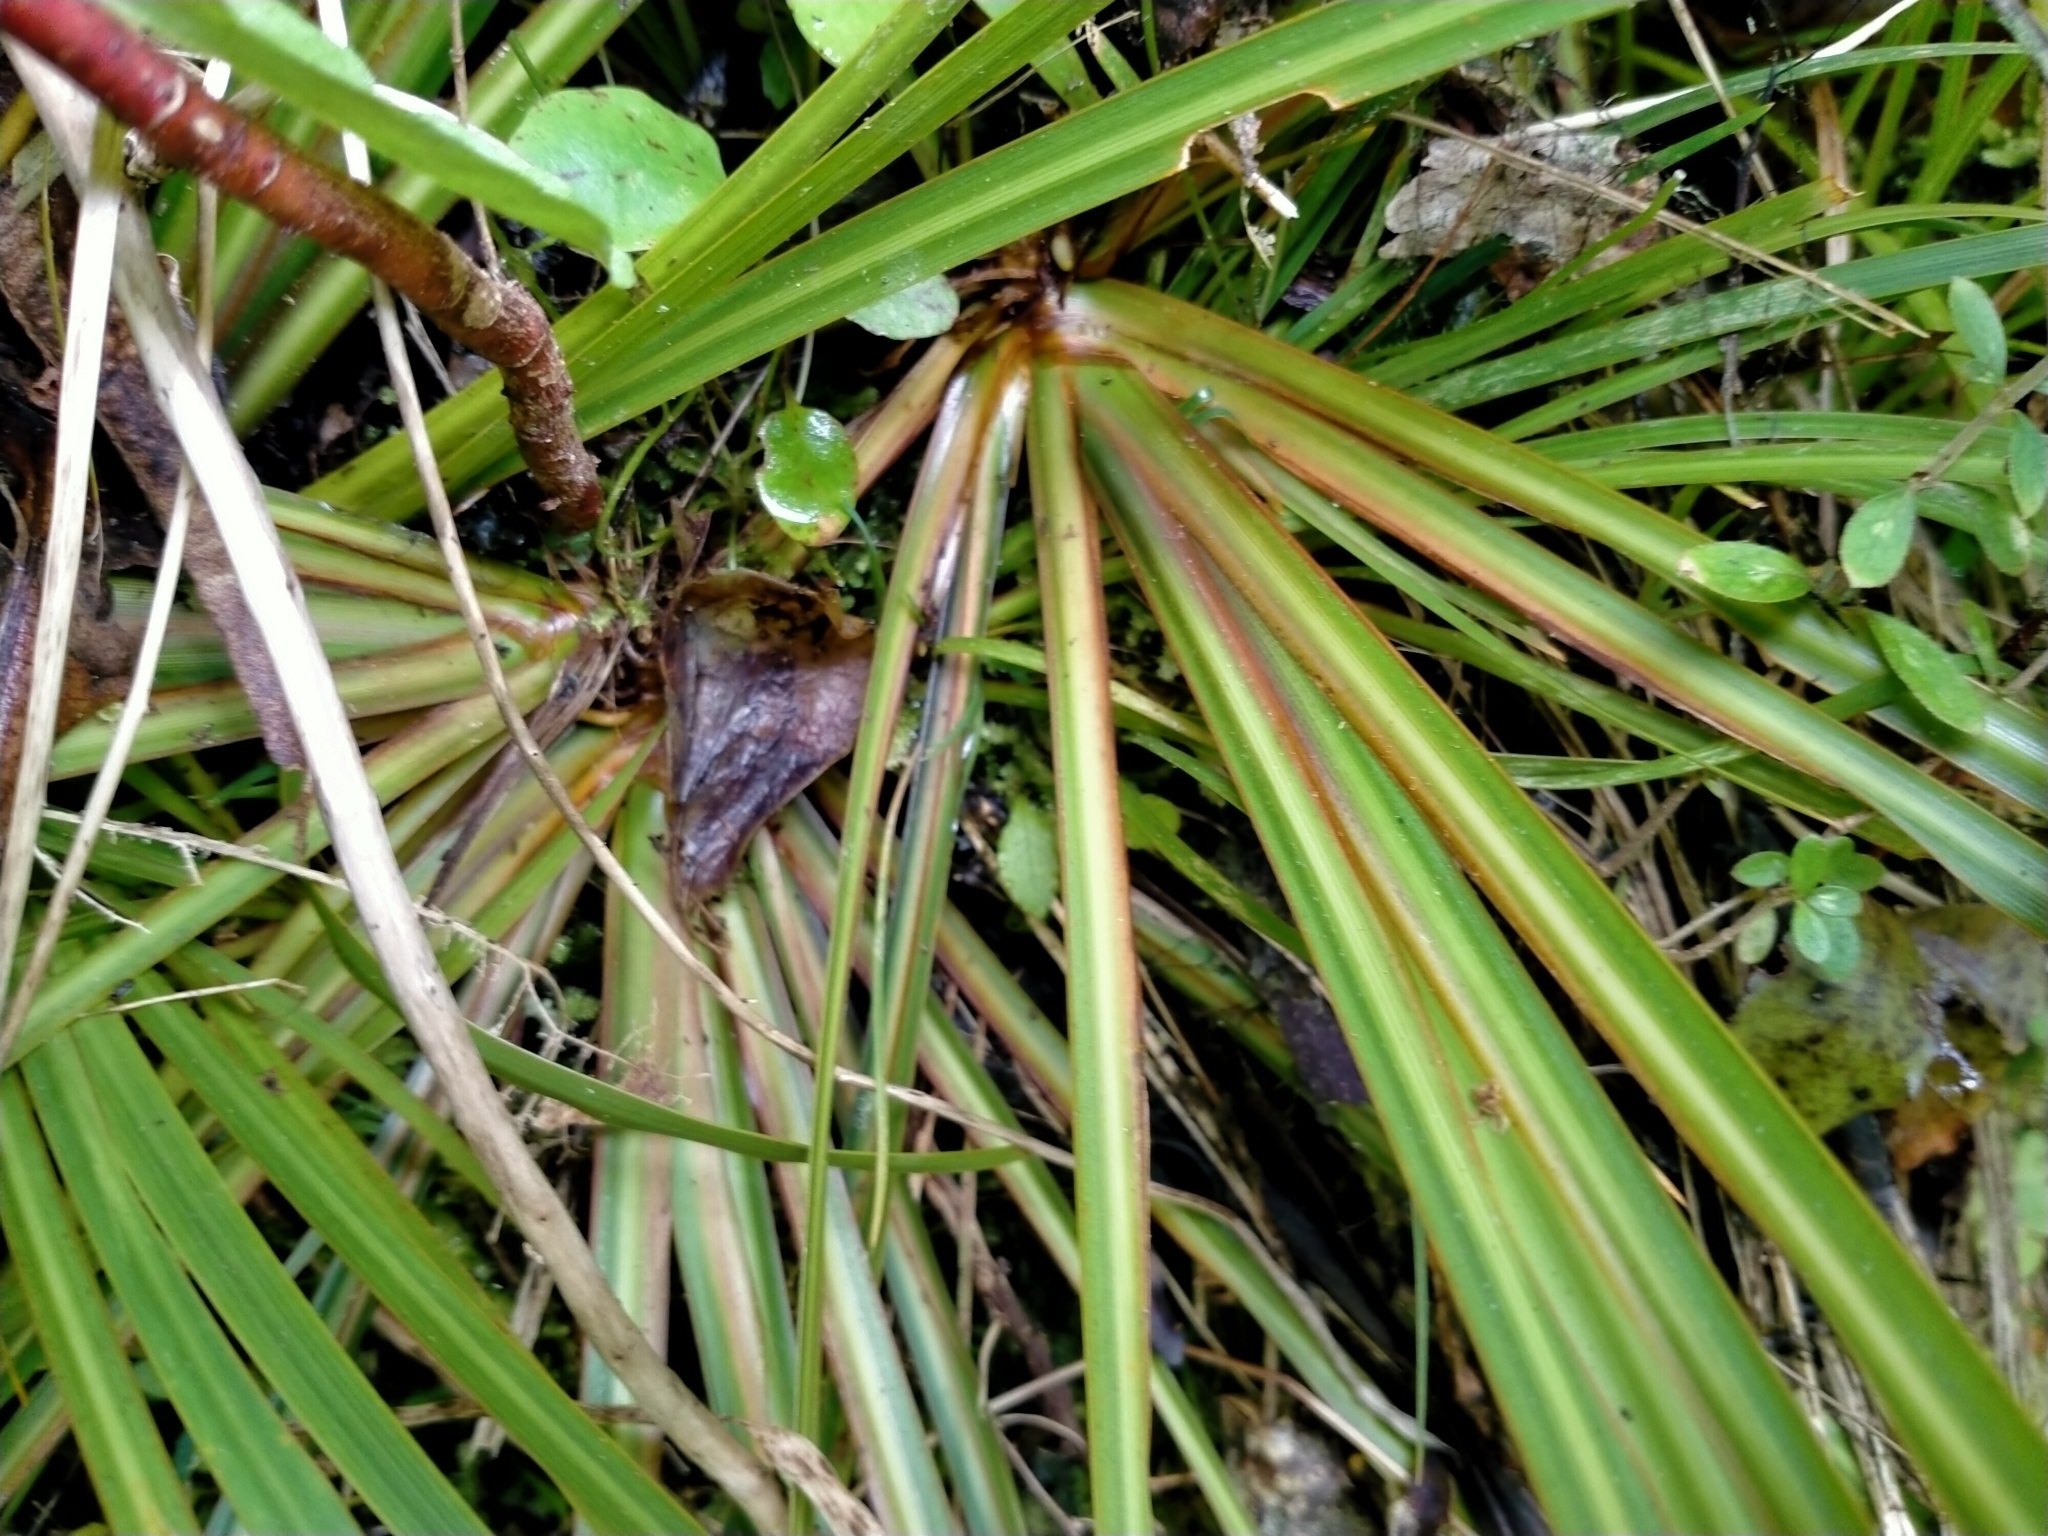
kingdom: Plantae
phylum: Tracheophyta
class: Liliopsida
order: Asparagales
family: Iridaceae
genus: Libertia
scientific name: Libertia ixioides
